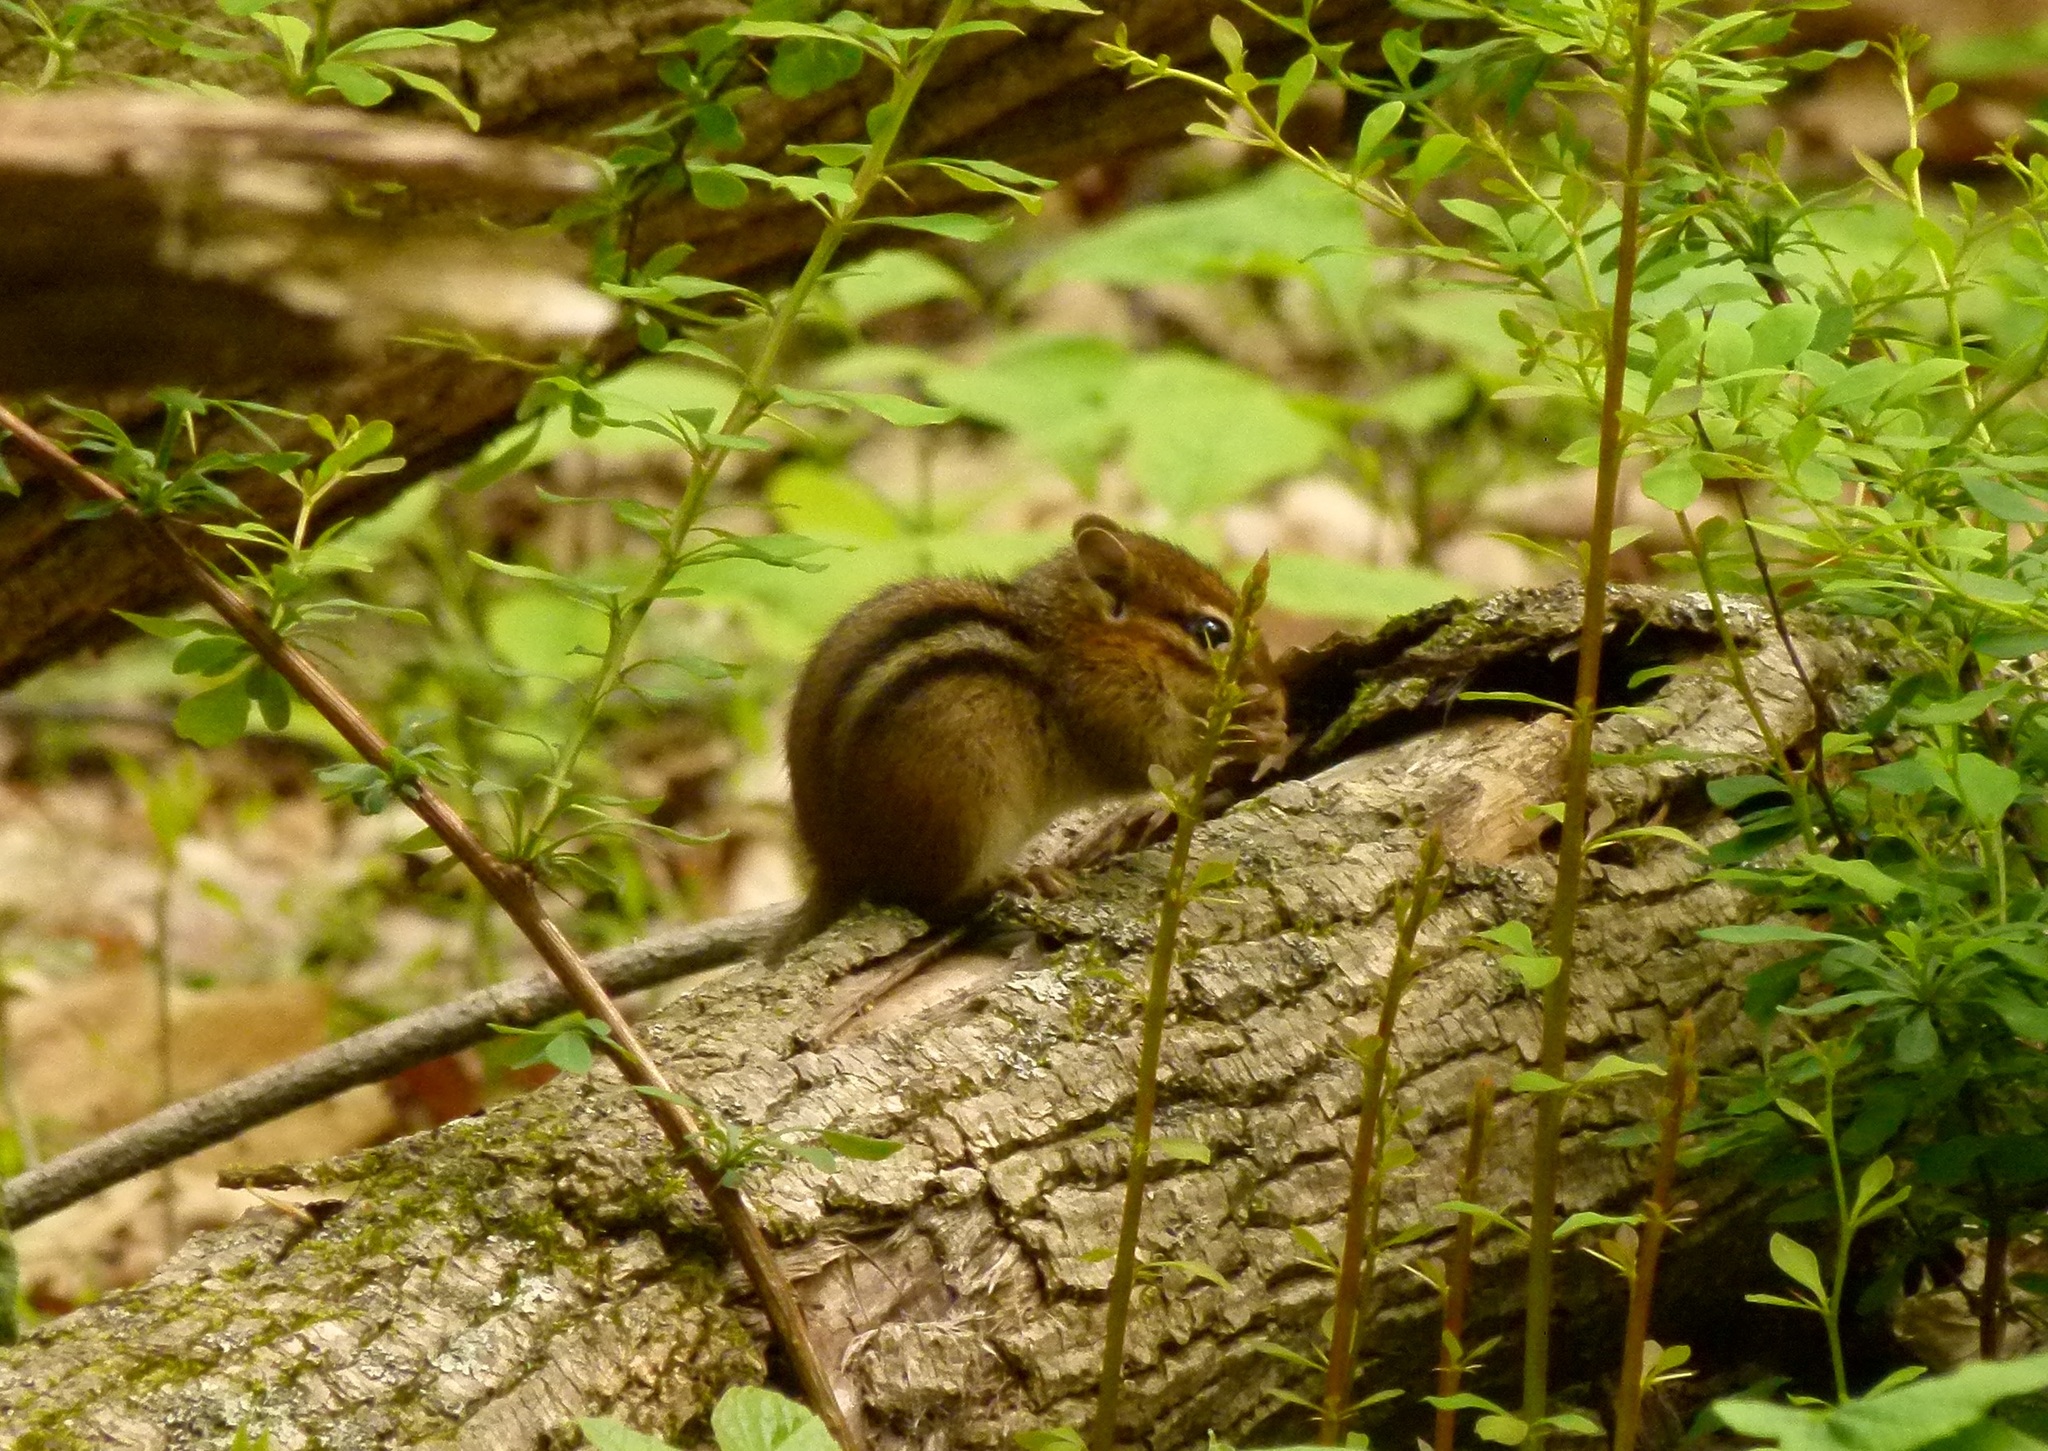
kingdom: Animalia
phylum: Chordata
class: Mammalia
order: Rodentia
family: Sciuridae
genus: Tamias
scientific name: Tamias striatus
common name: Eastern chipmunk
